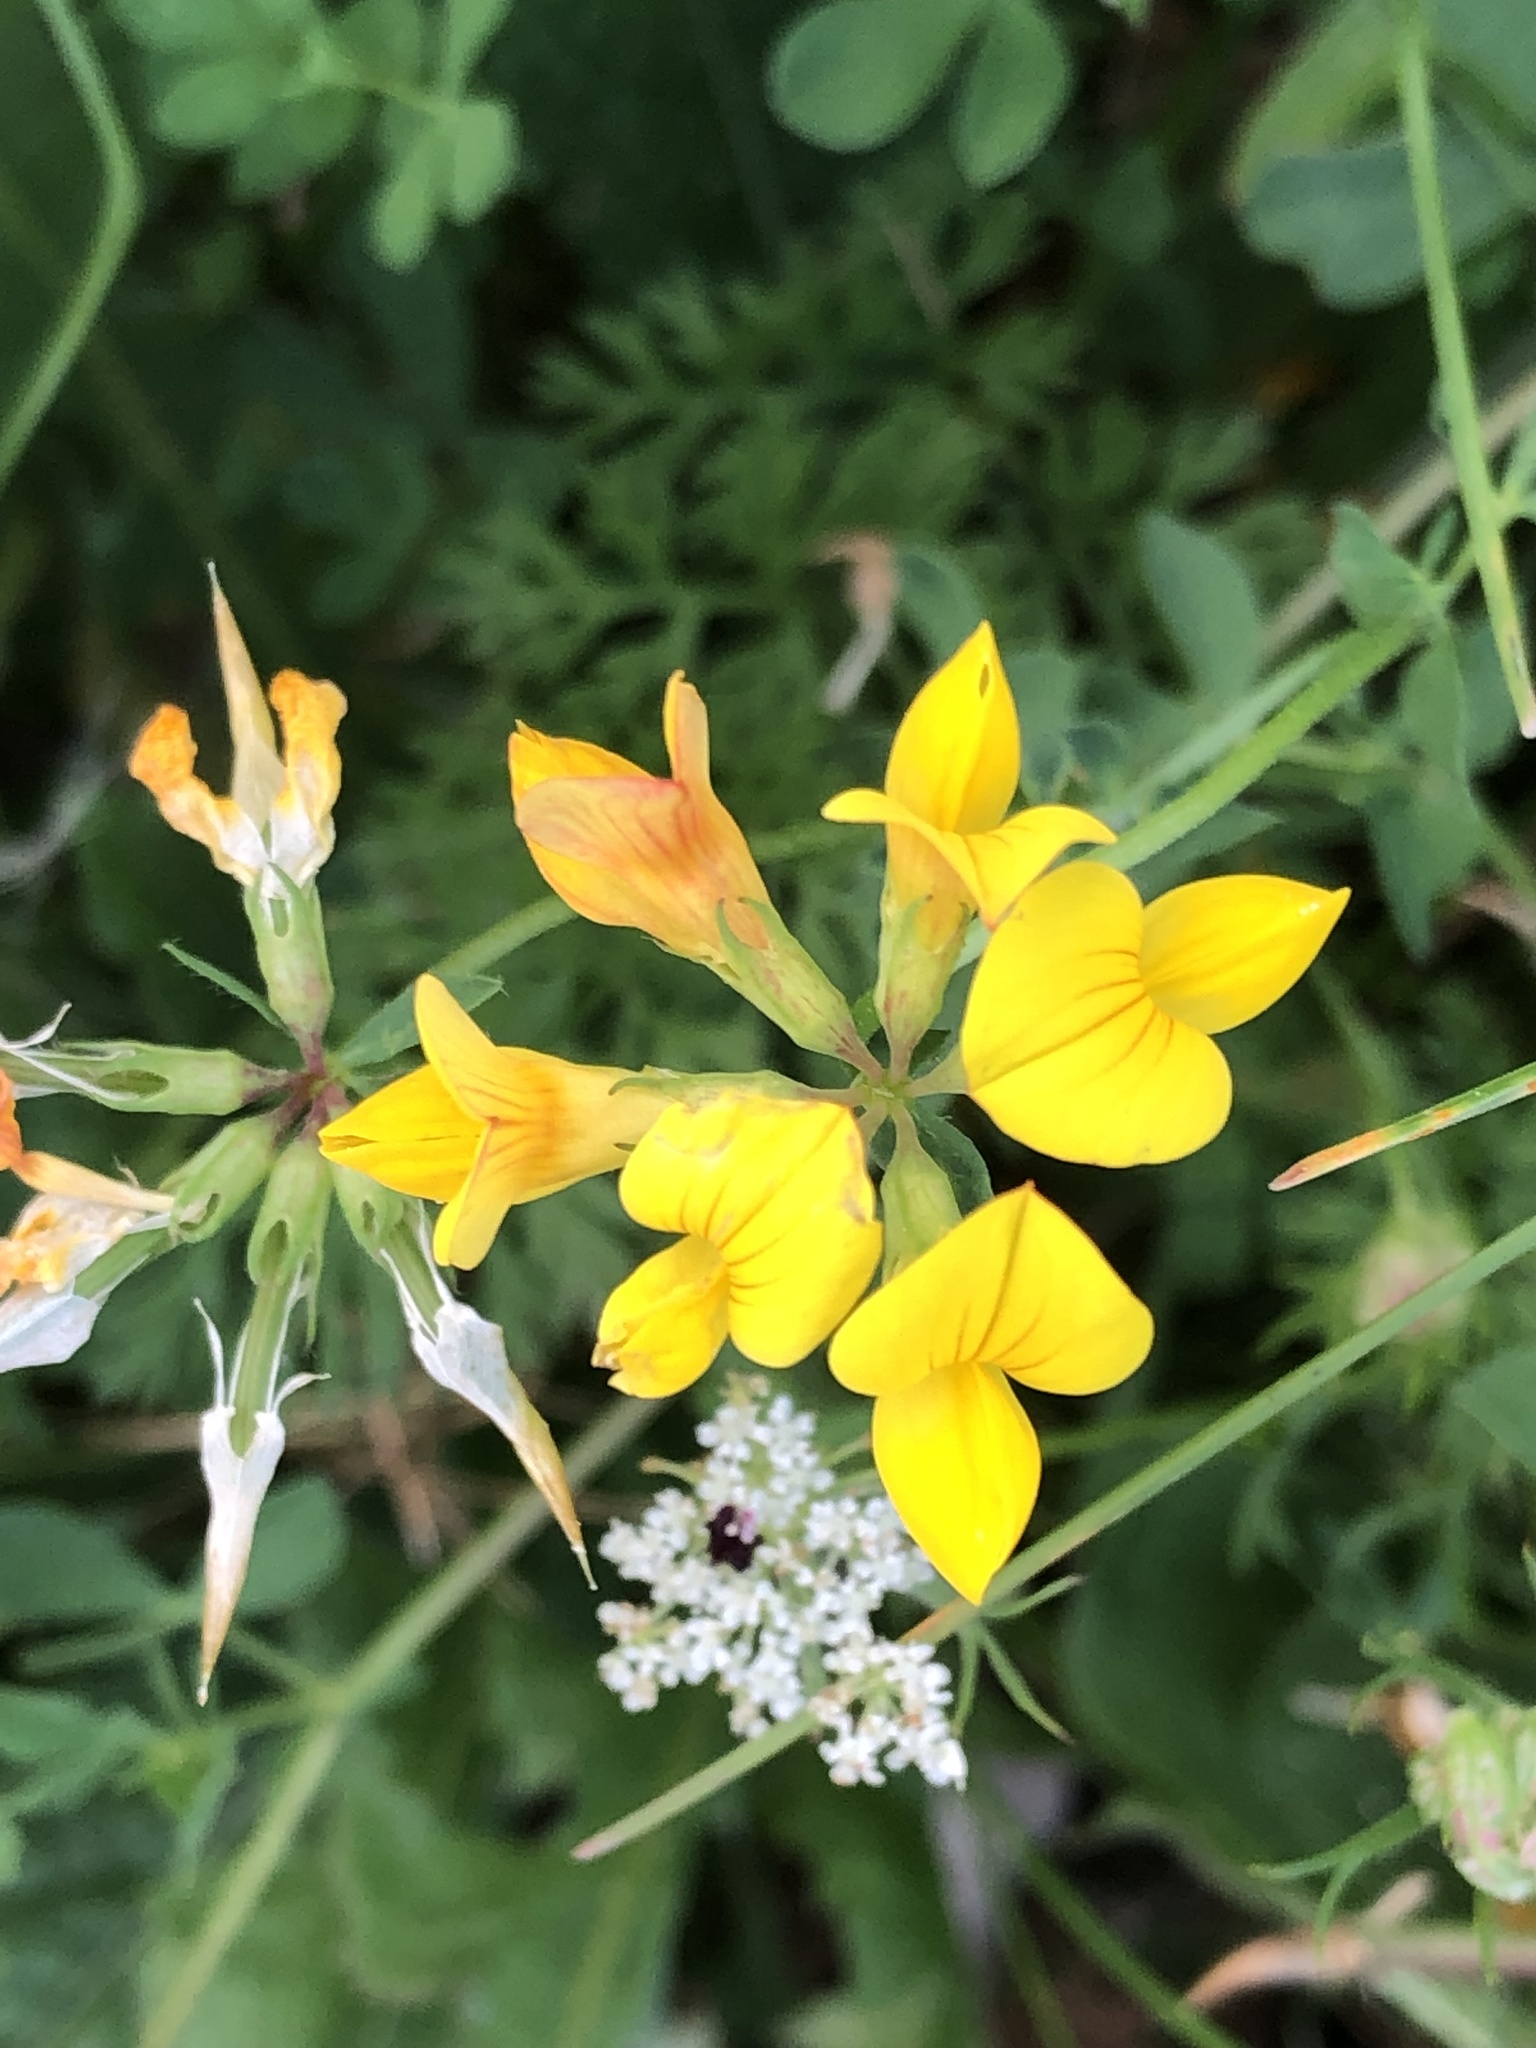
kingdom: Plantae
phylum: Tracheophyta
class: Magnoliopsida
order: Fabales
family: Fabaceae
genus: Lotus
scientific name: Lotus corniculatus
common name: Common bird's-foot-trefoil
